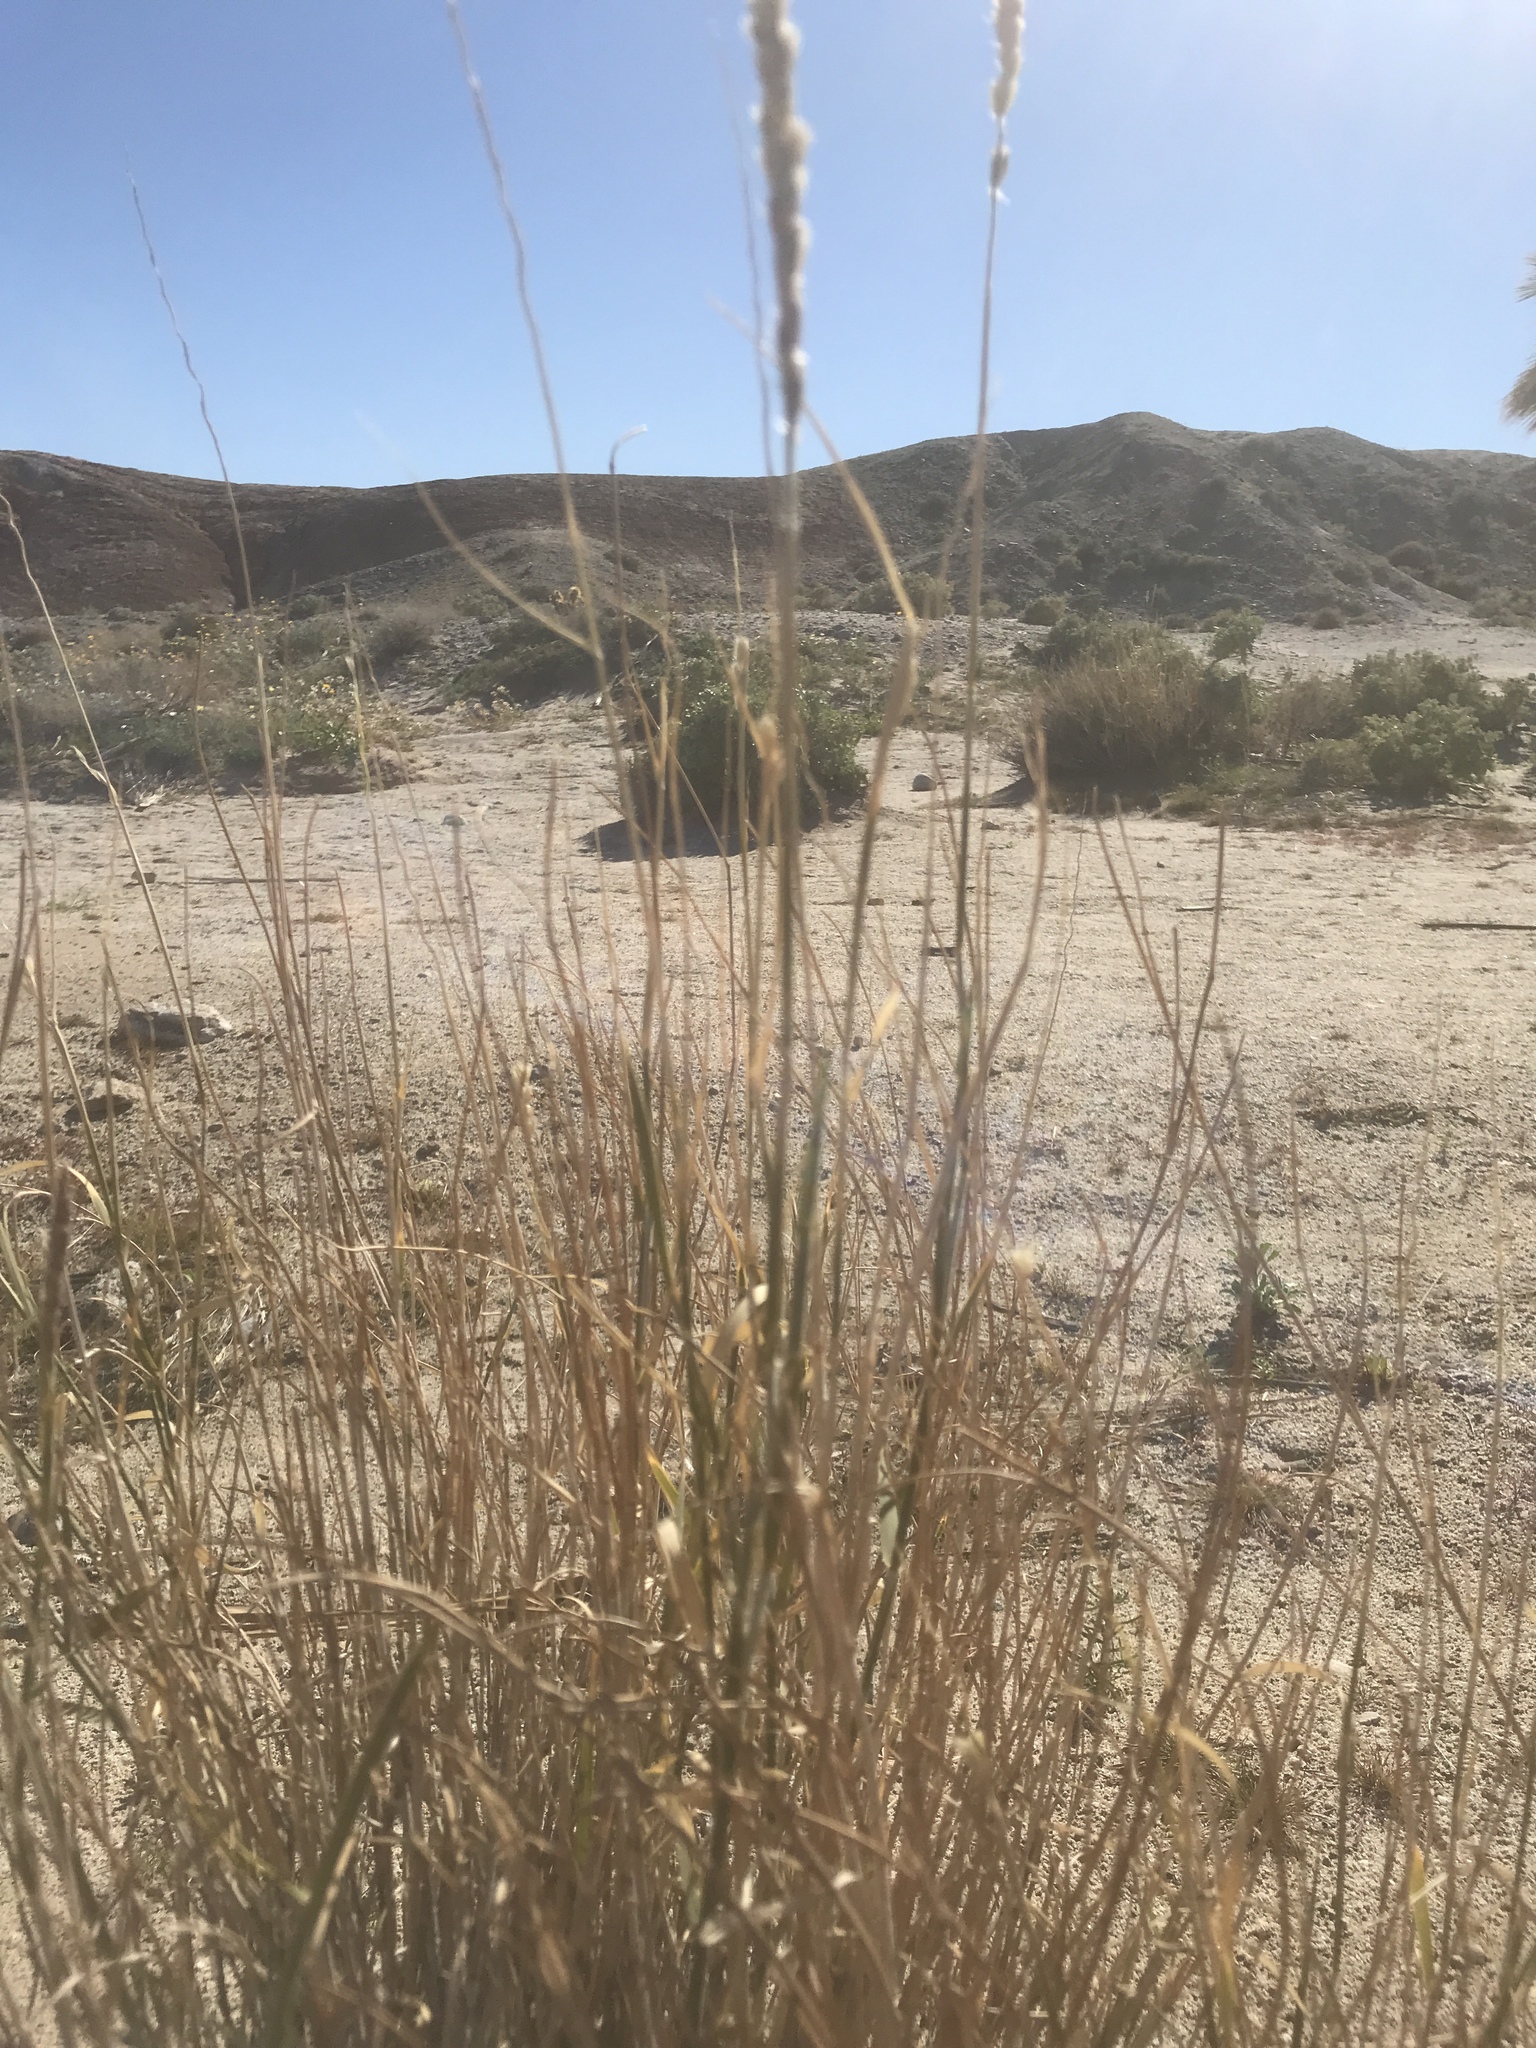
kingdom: Plantae
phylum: Tracheophyta
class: Liliopsida
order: Poales
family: Poaceae
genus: Hilaria
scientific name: Hilaria rigida
